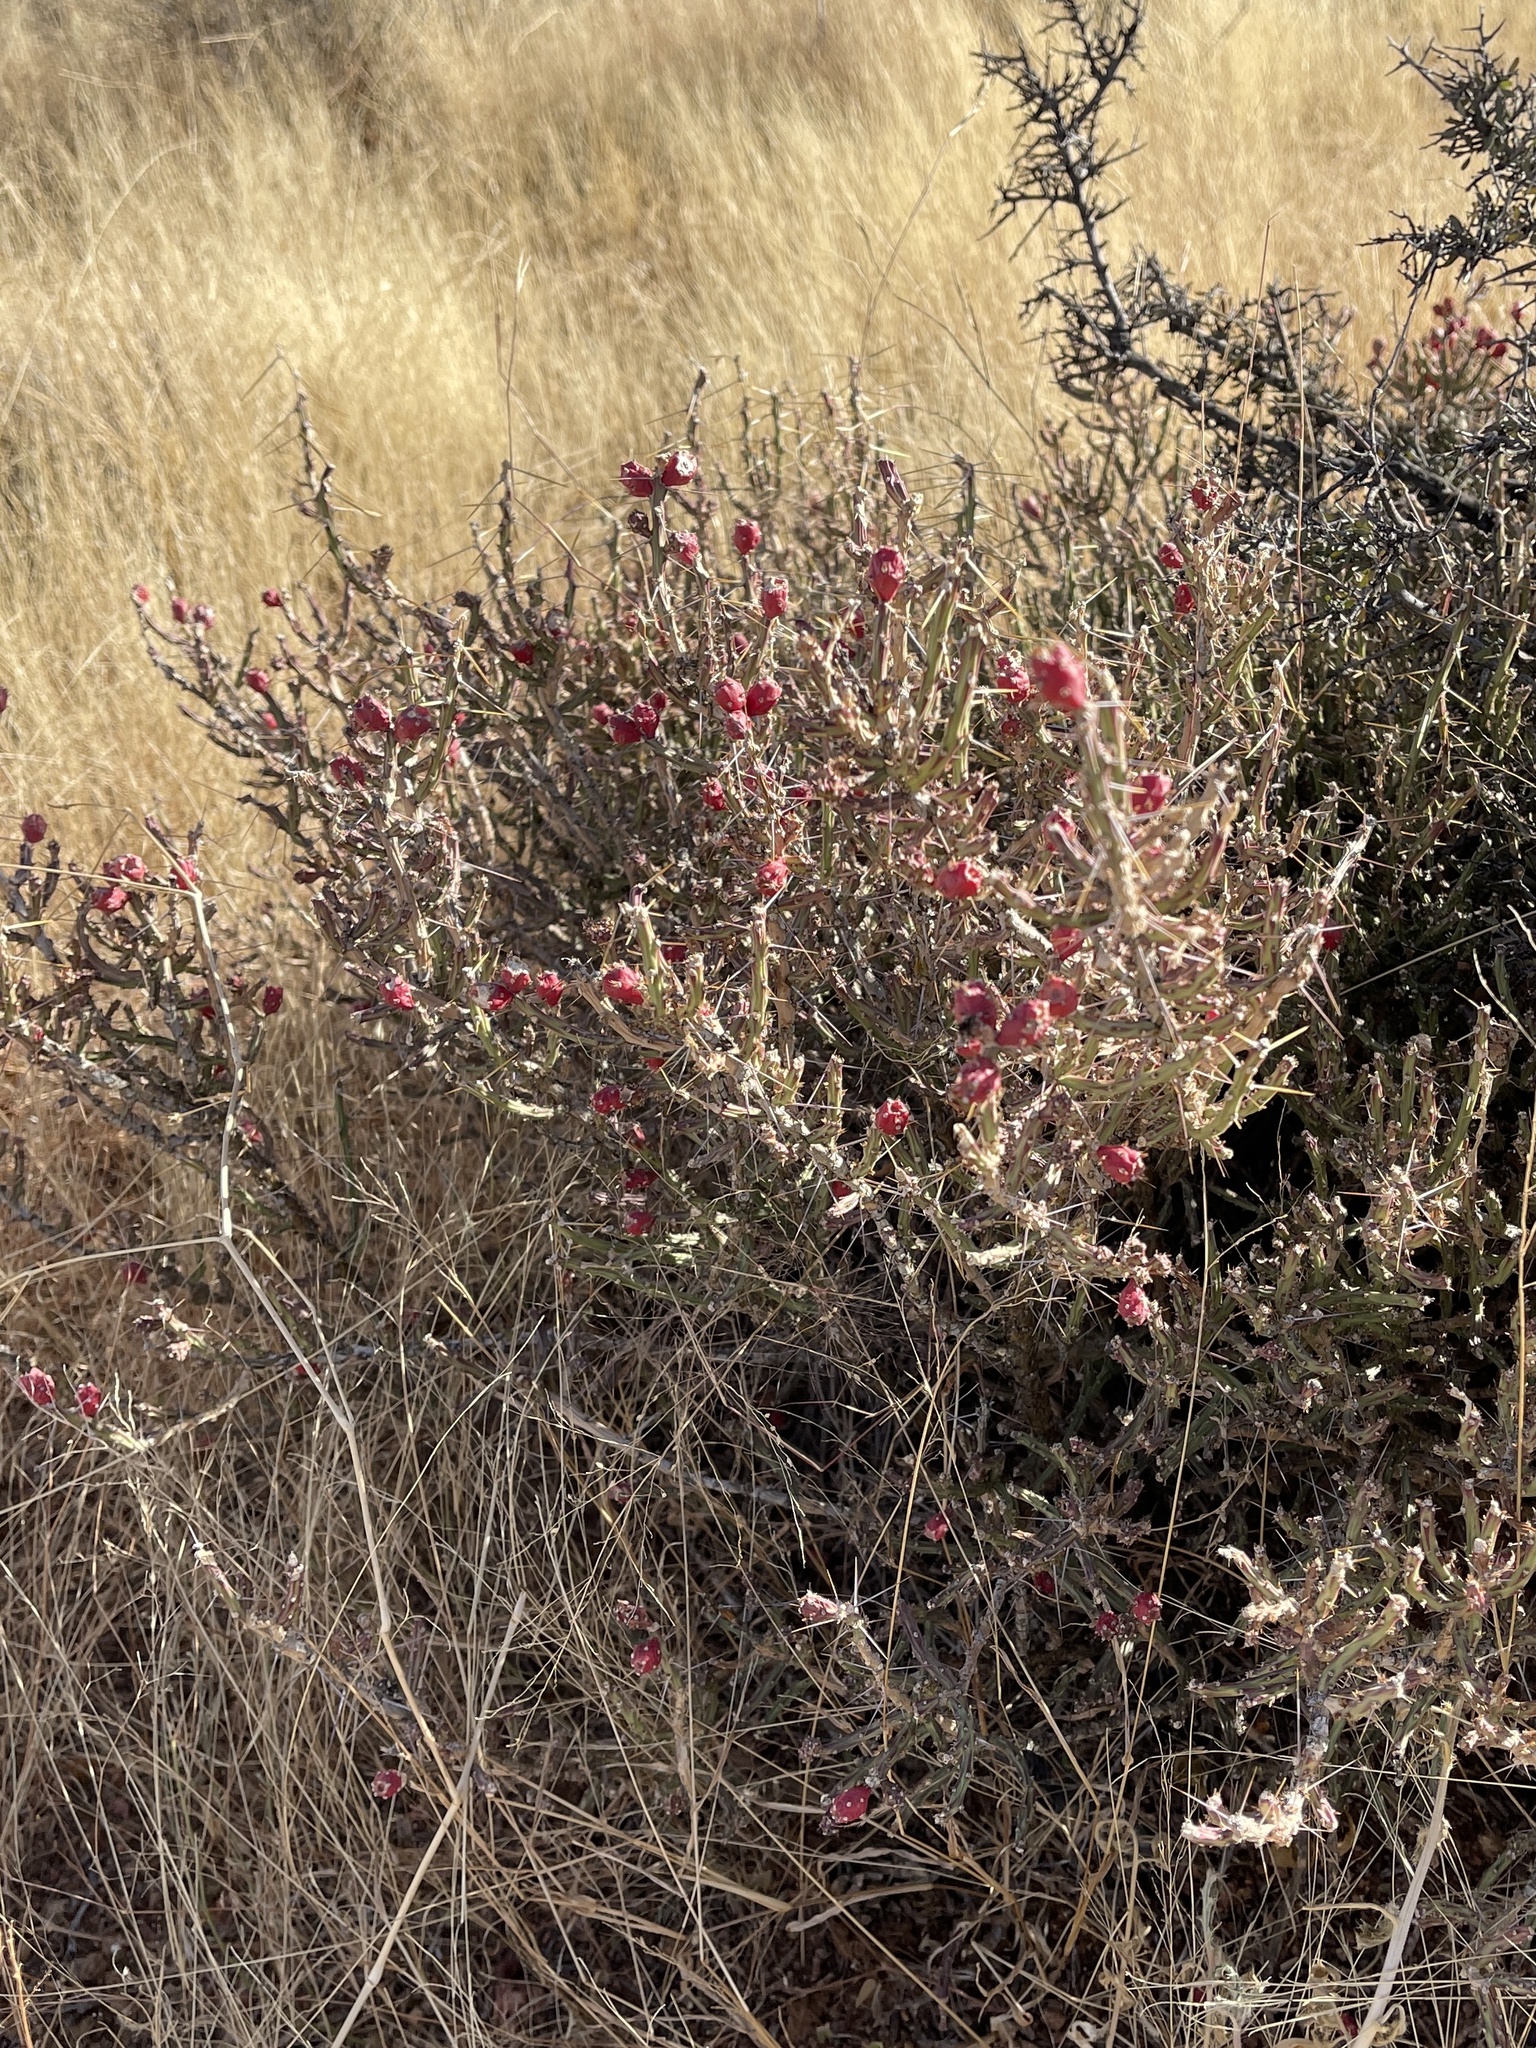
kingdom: Plantae
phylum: Tracheophyta
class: Magnoliopsida
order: Caryophyllales
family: Cactaceae
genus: Cylindropuntia
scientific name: Cylindropuntia leptocaulis
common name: Christmas cactus
